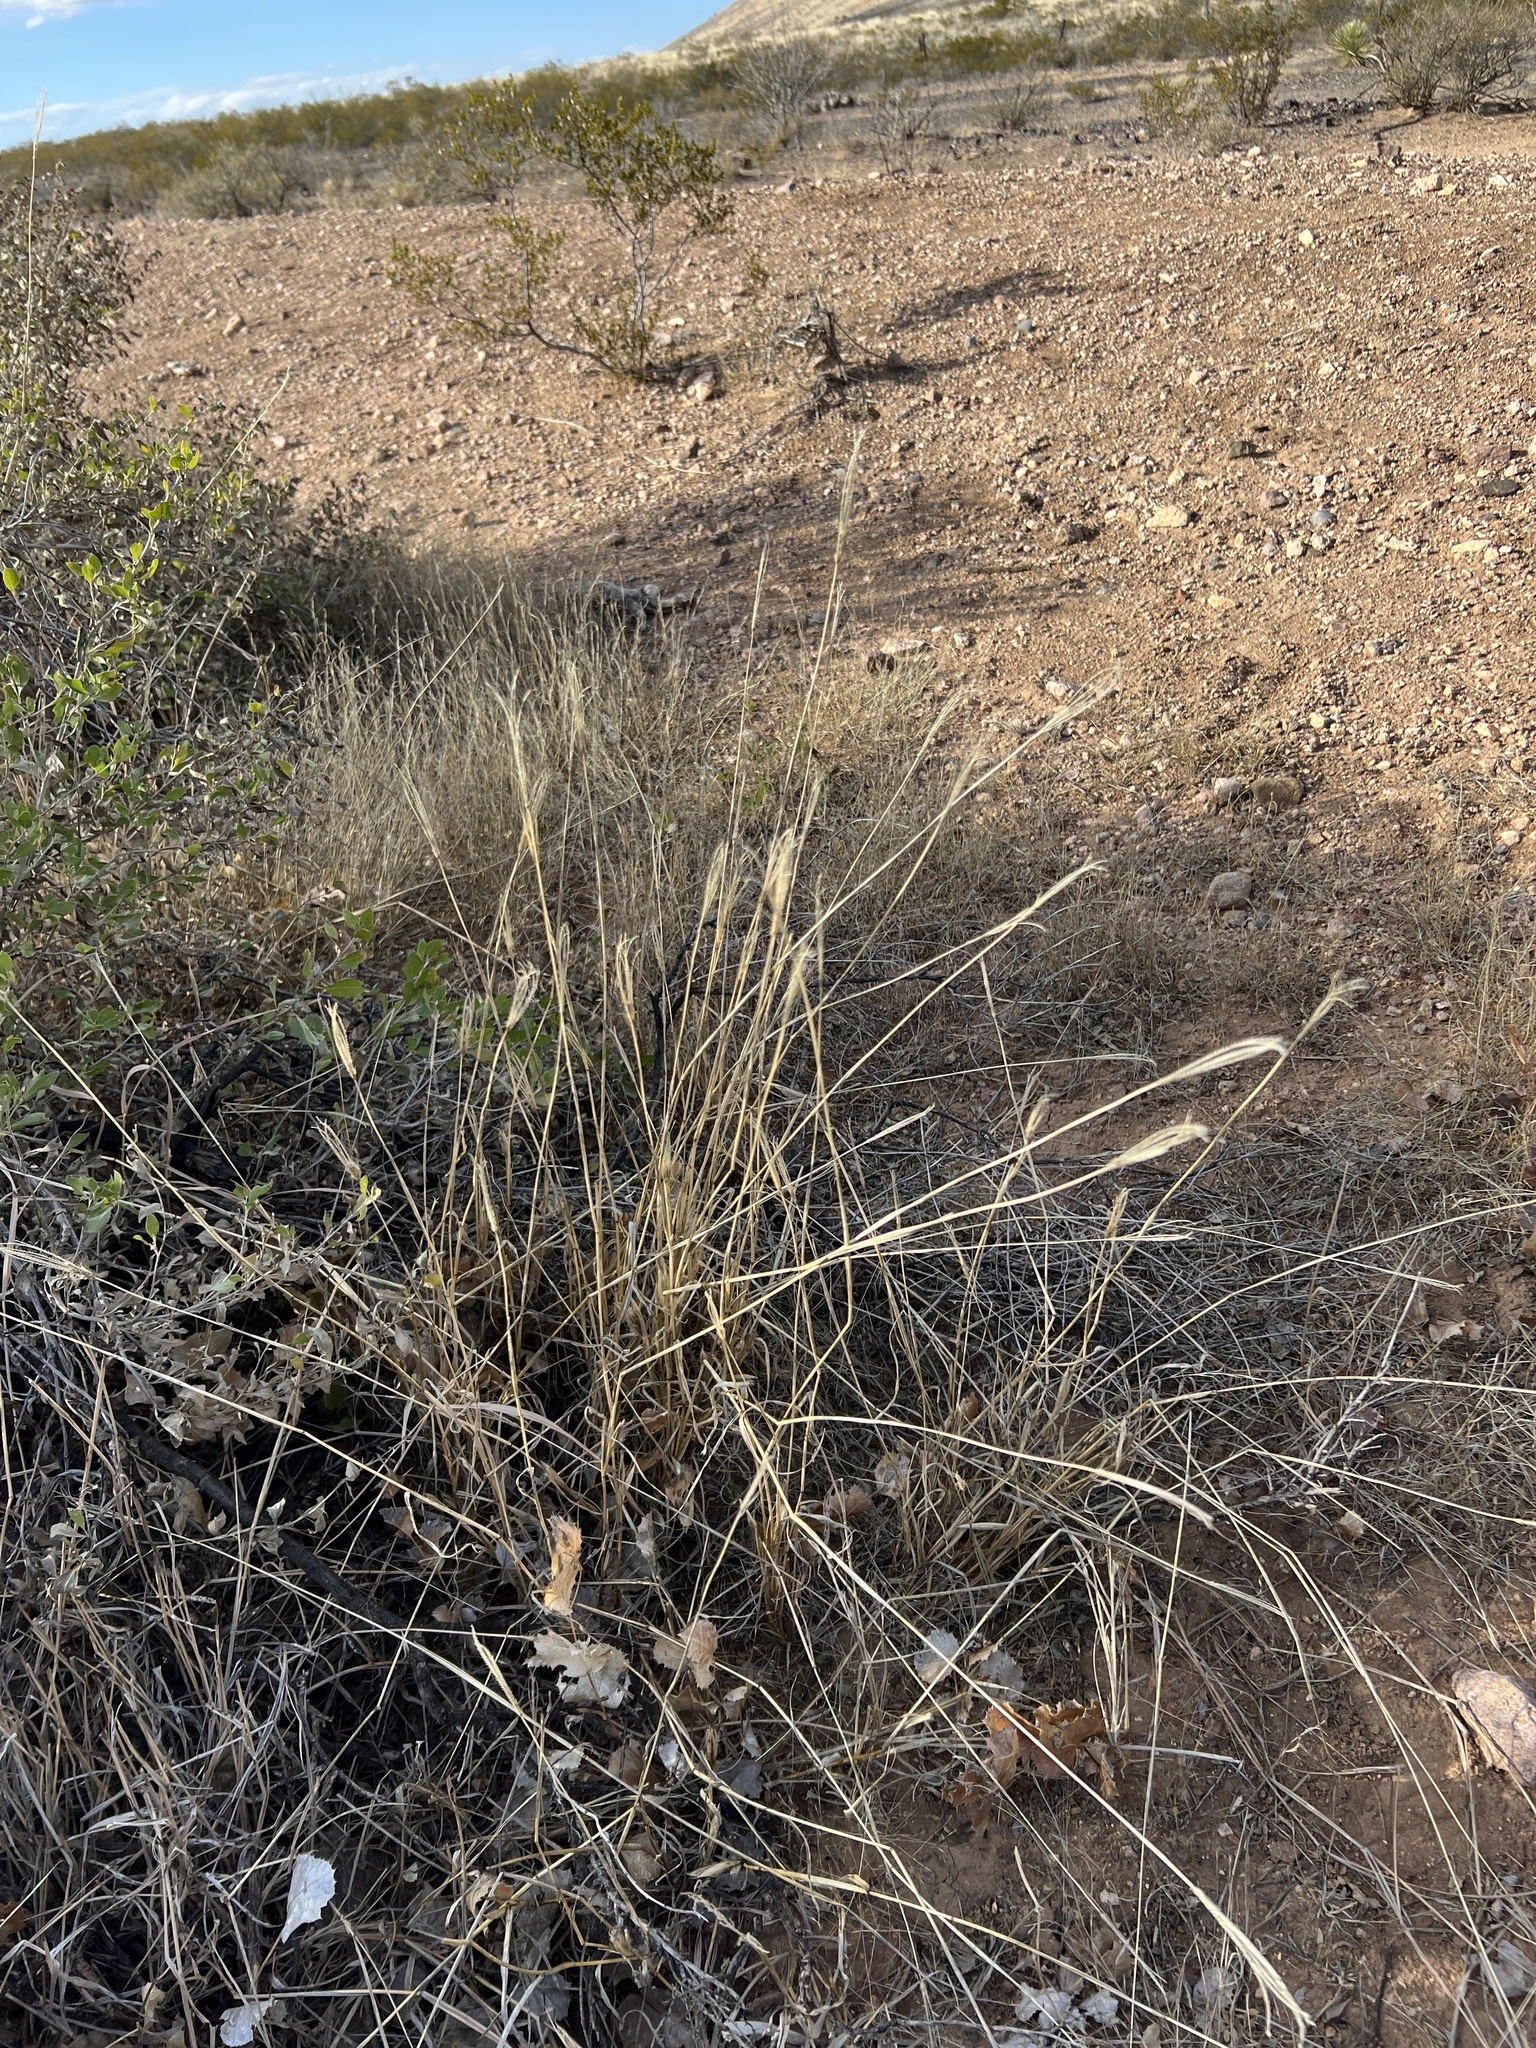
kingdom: Plantae
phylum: Tracheophyta
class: Liliopsida
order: Poales
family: Poaceae
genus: Setaria
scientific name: Setaria leucopila
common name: Plains bristle grass
